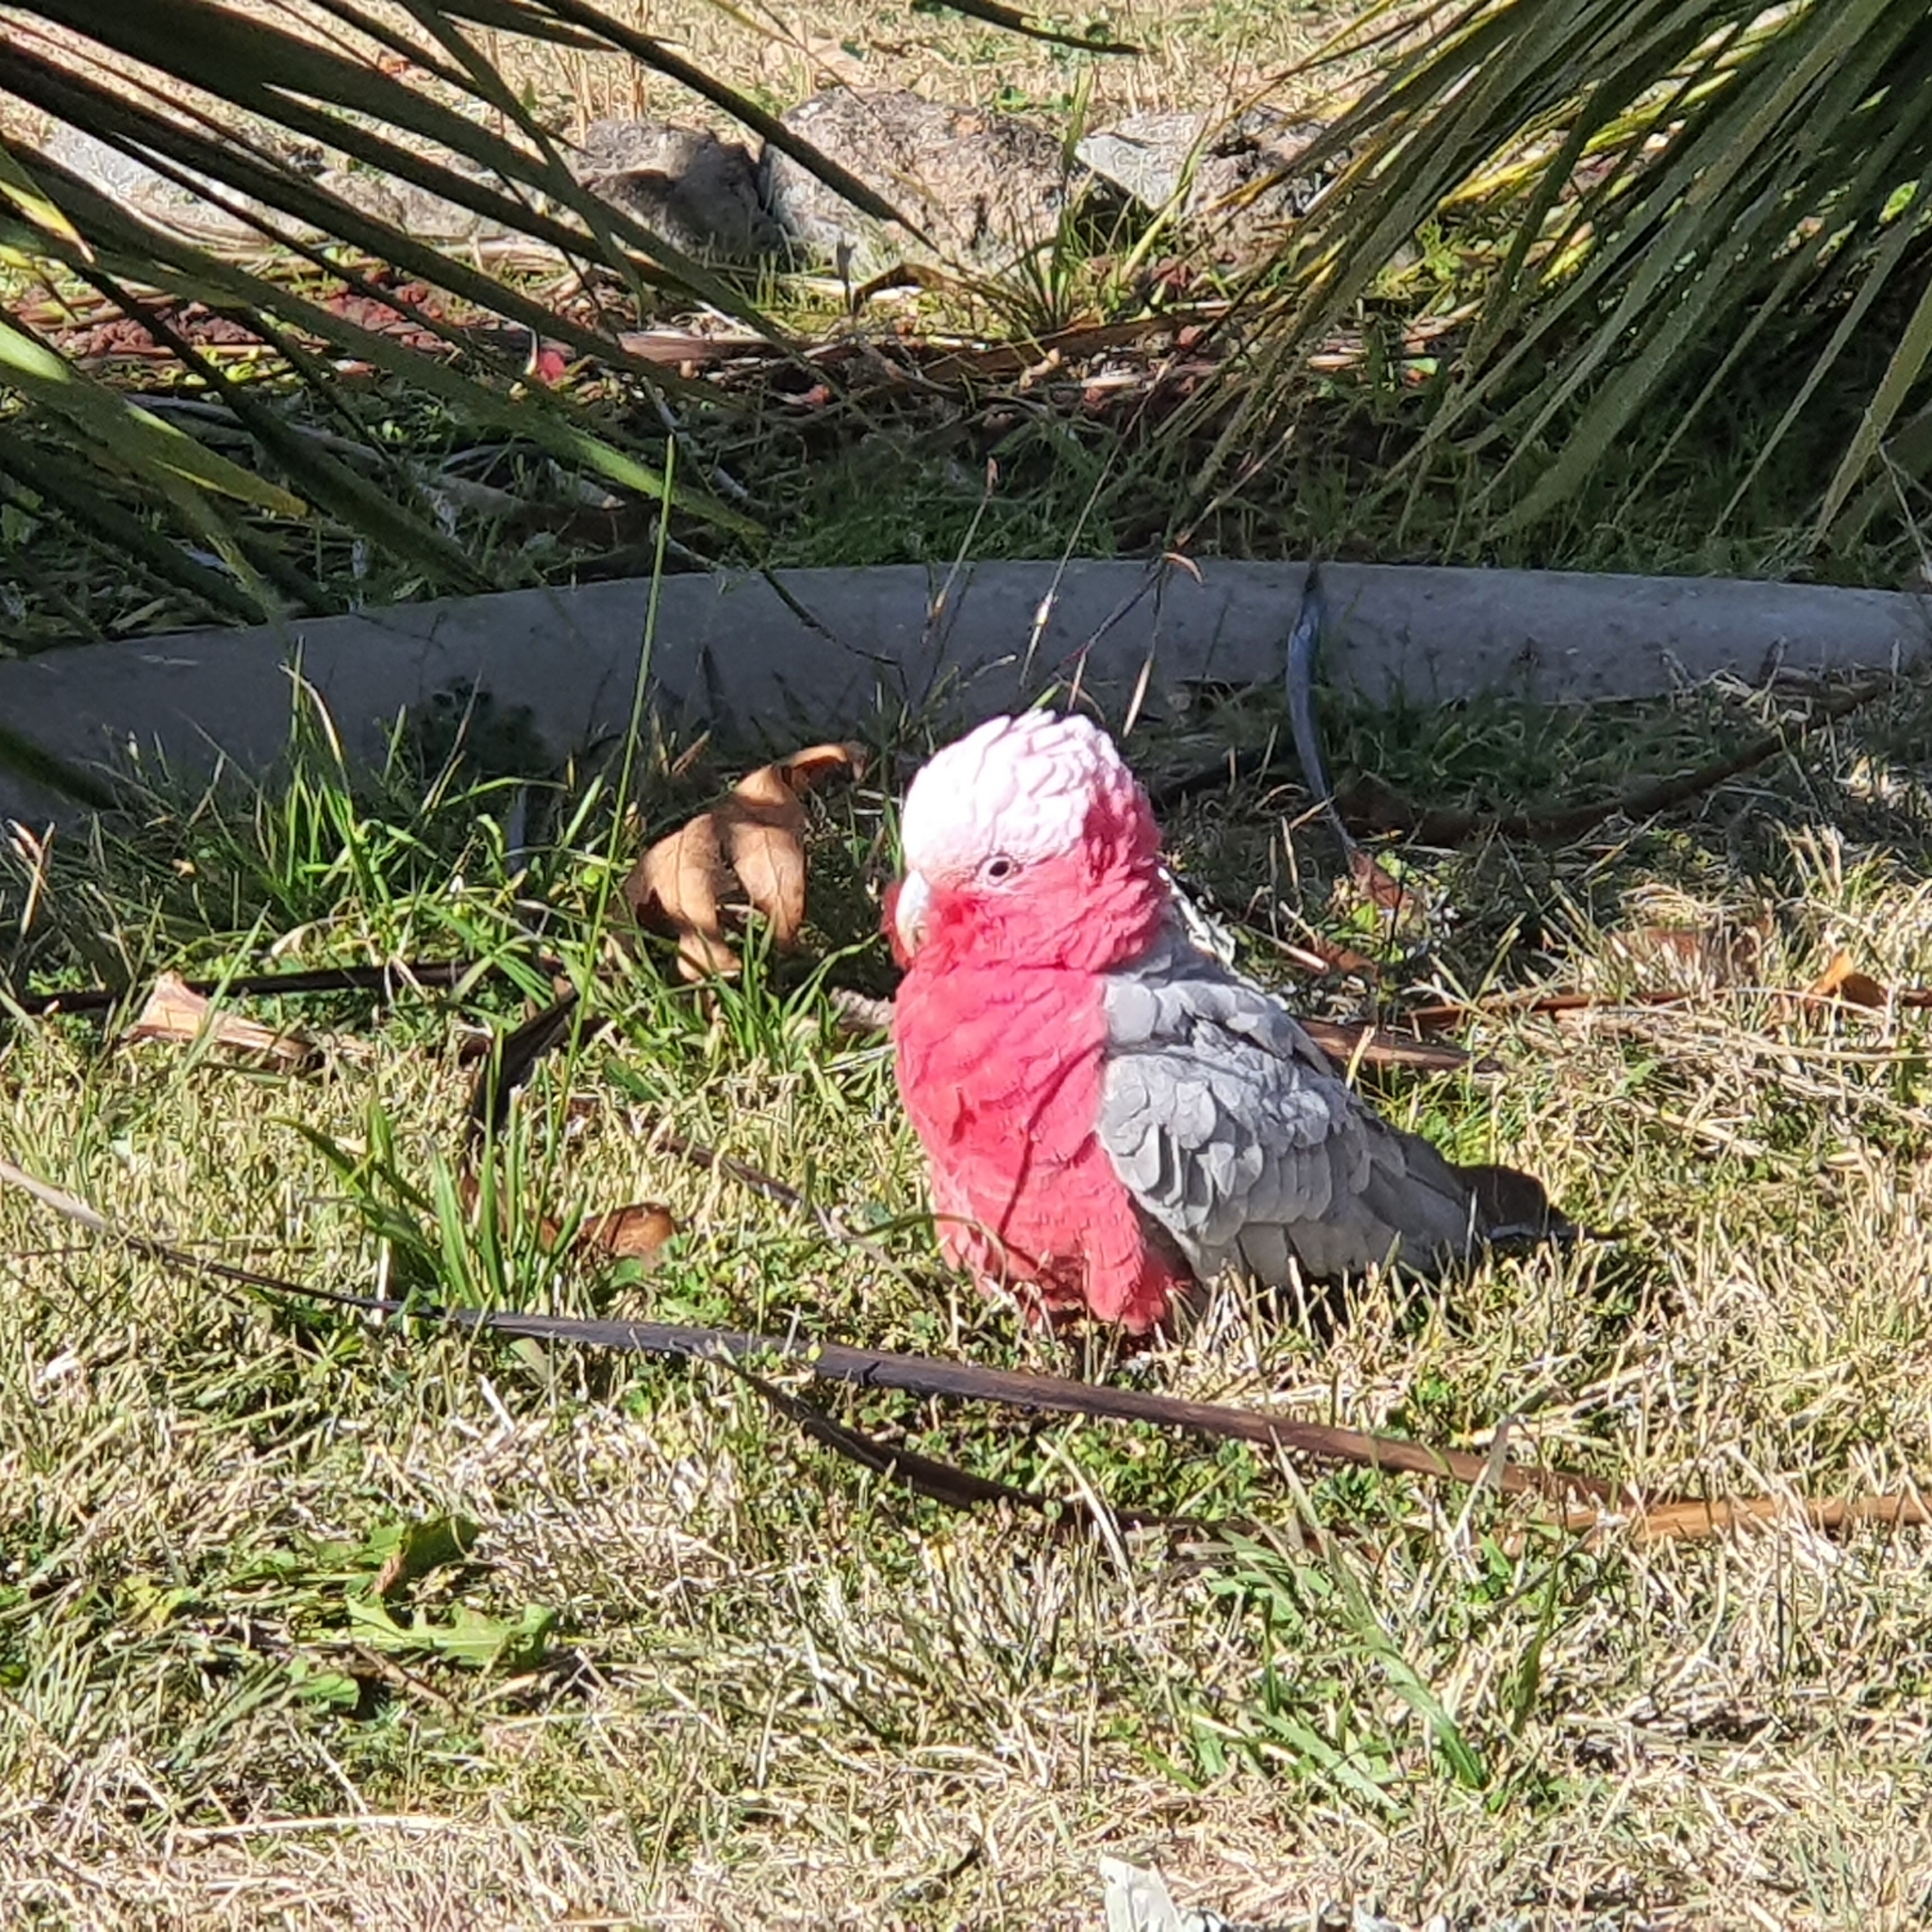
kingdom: Animalia
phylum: Chordata
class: Aves
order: Psittaciformes
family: Psittacidae
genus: Eolophus
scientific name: Eolophus roseicapilla
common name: Galah
